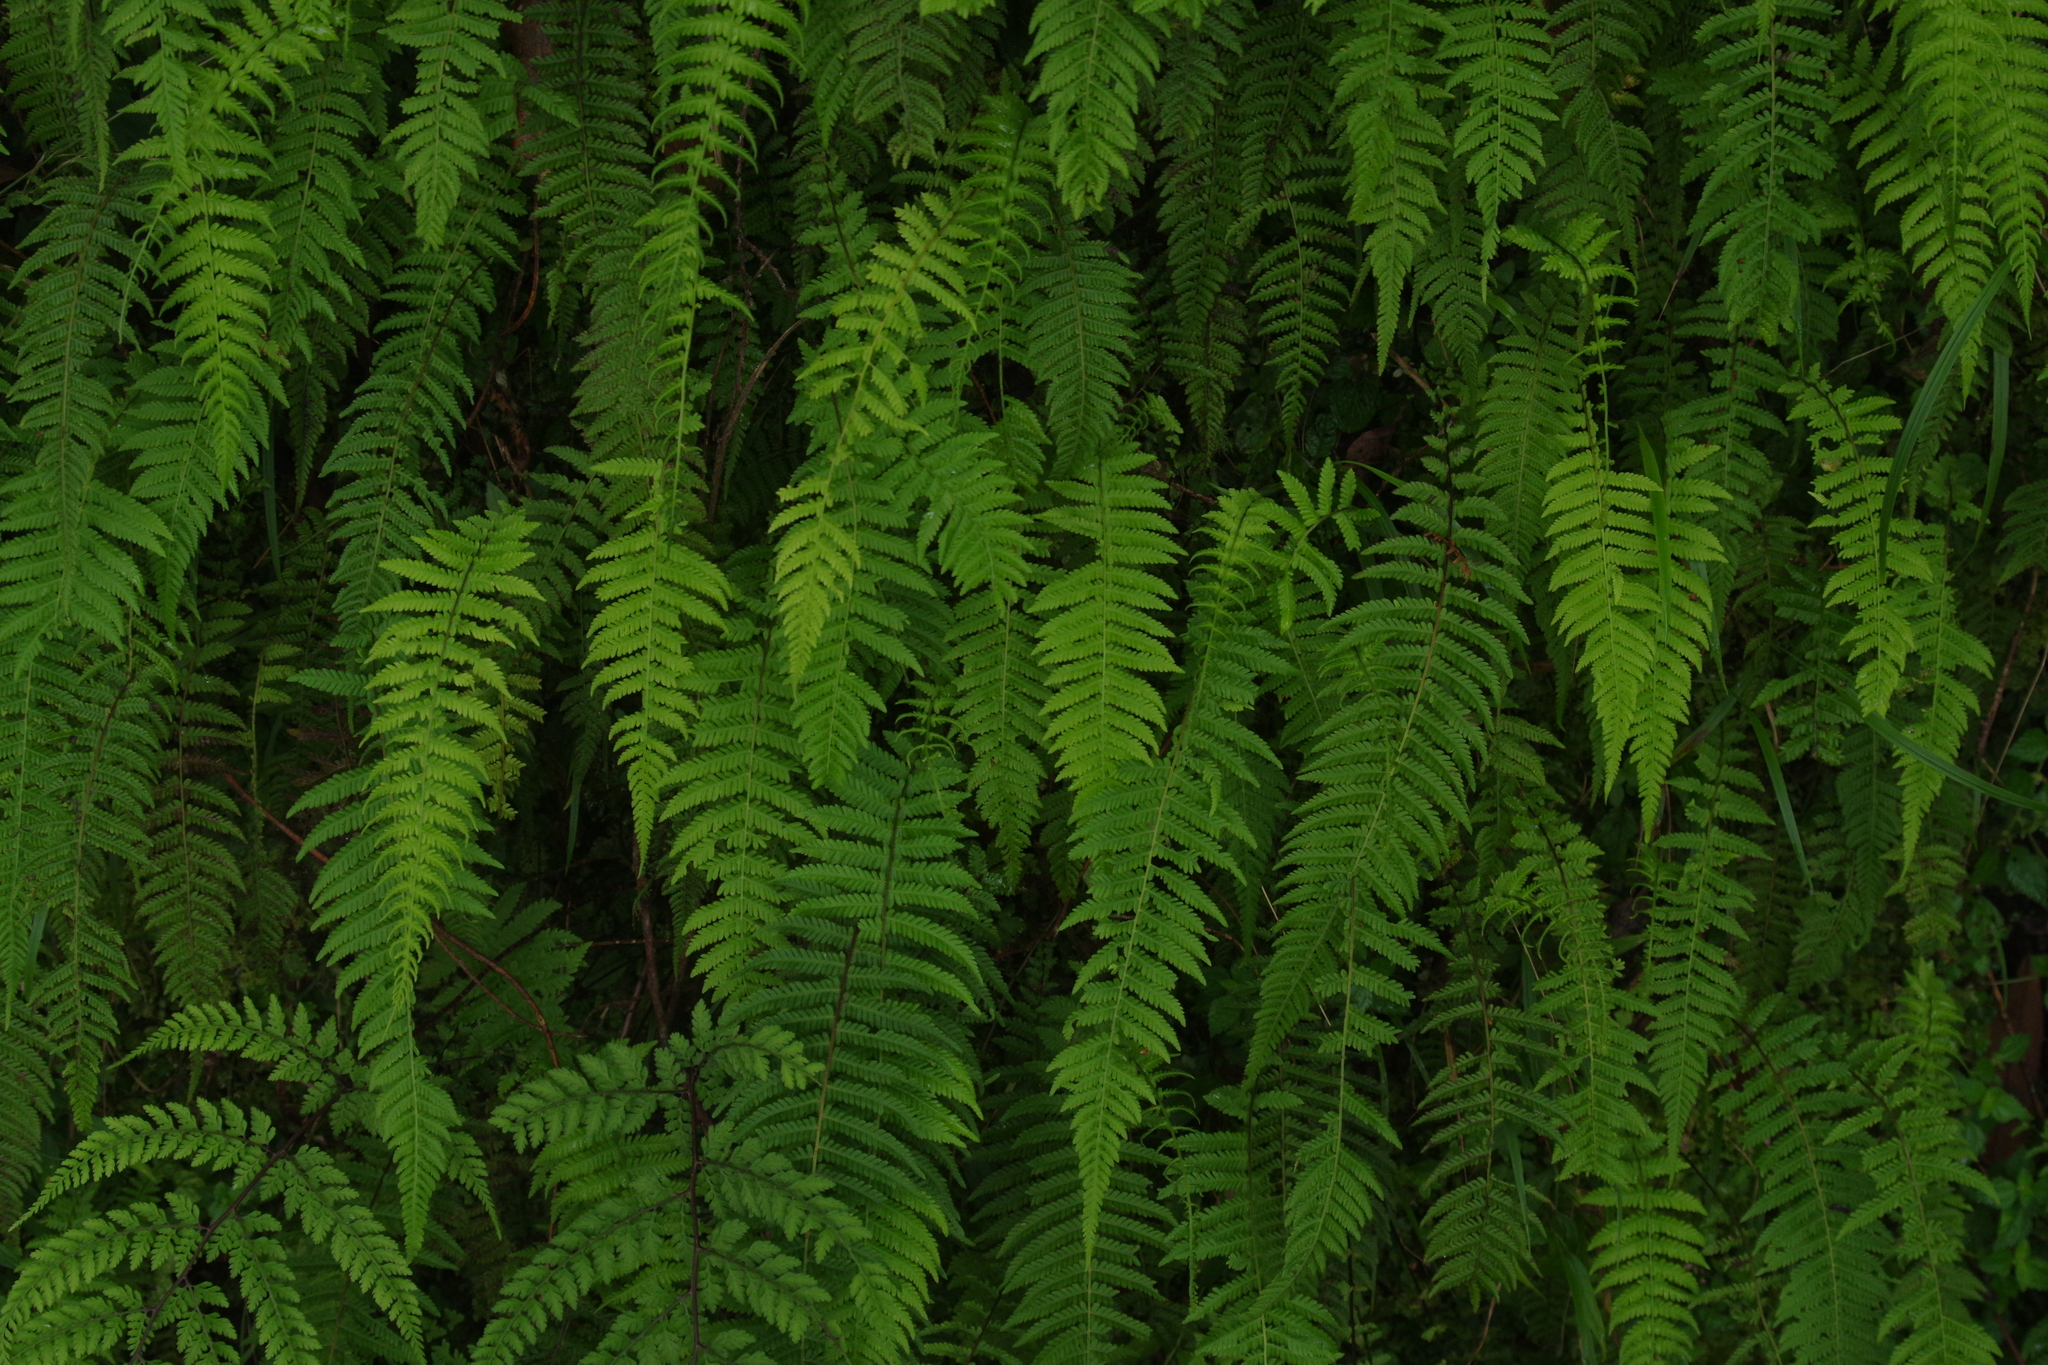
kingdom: Plantae
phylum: Tracheophyta
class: Polypodiopsida
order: Polypodiales
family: Thelypteridaceae
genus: Amauropelta
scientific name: Amauropelta beddomei
